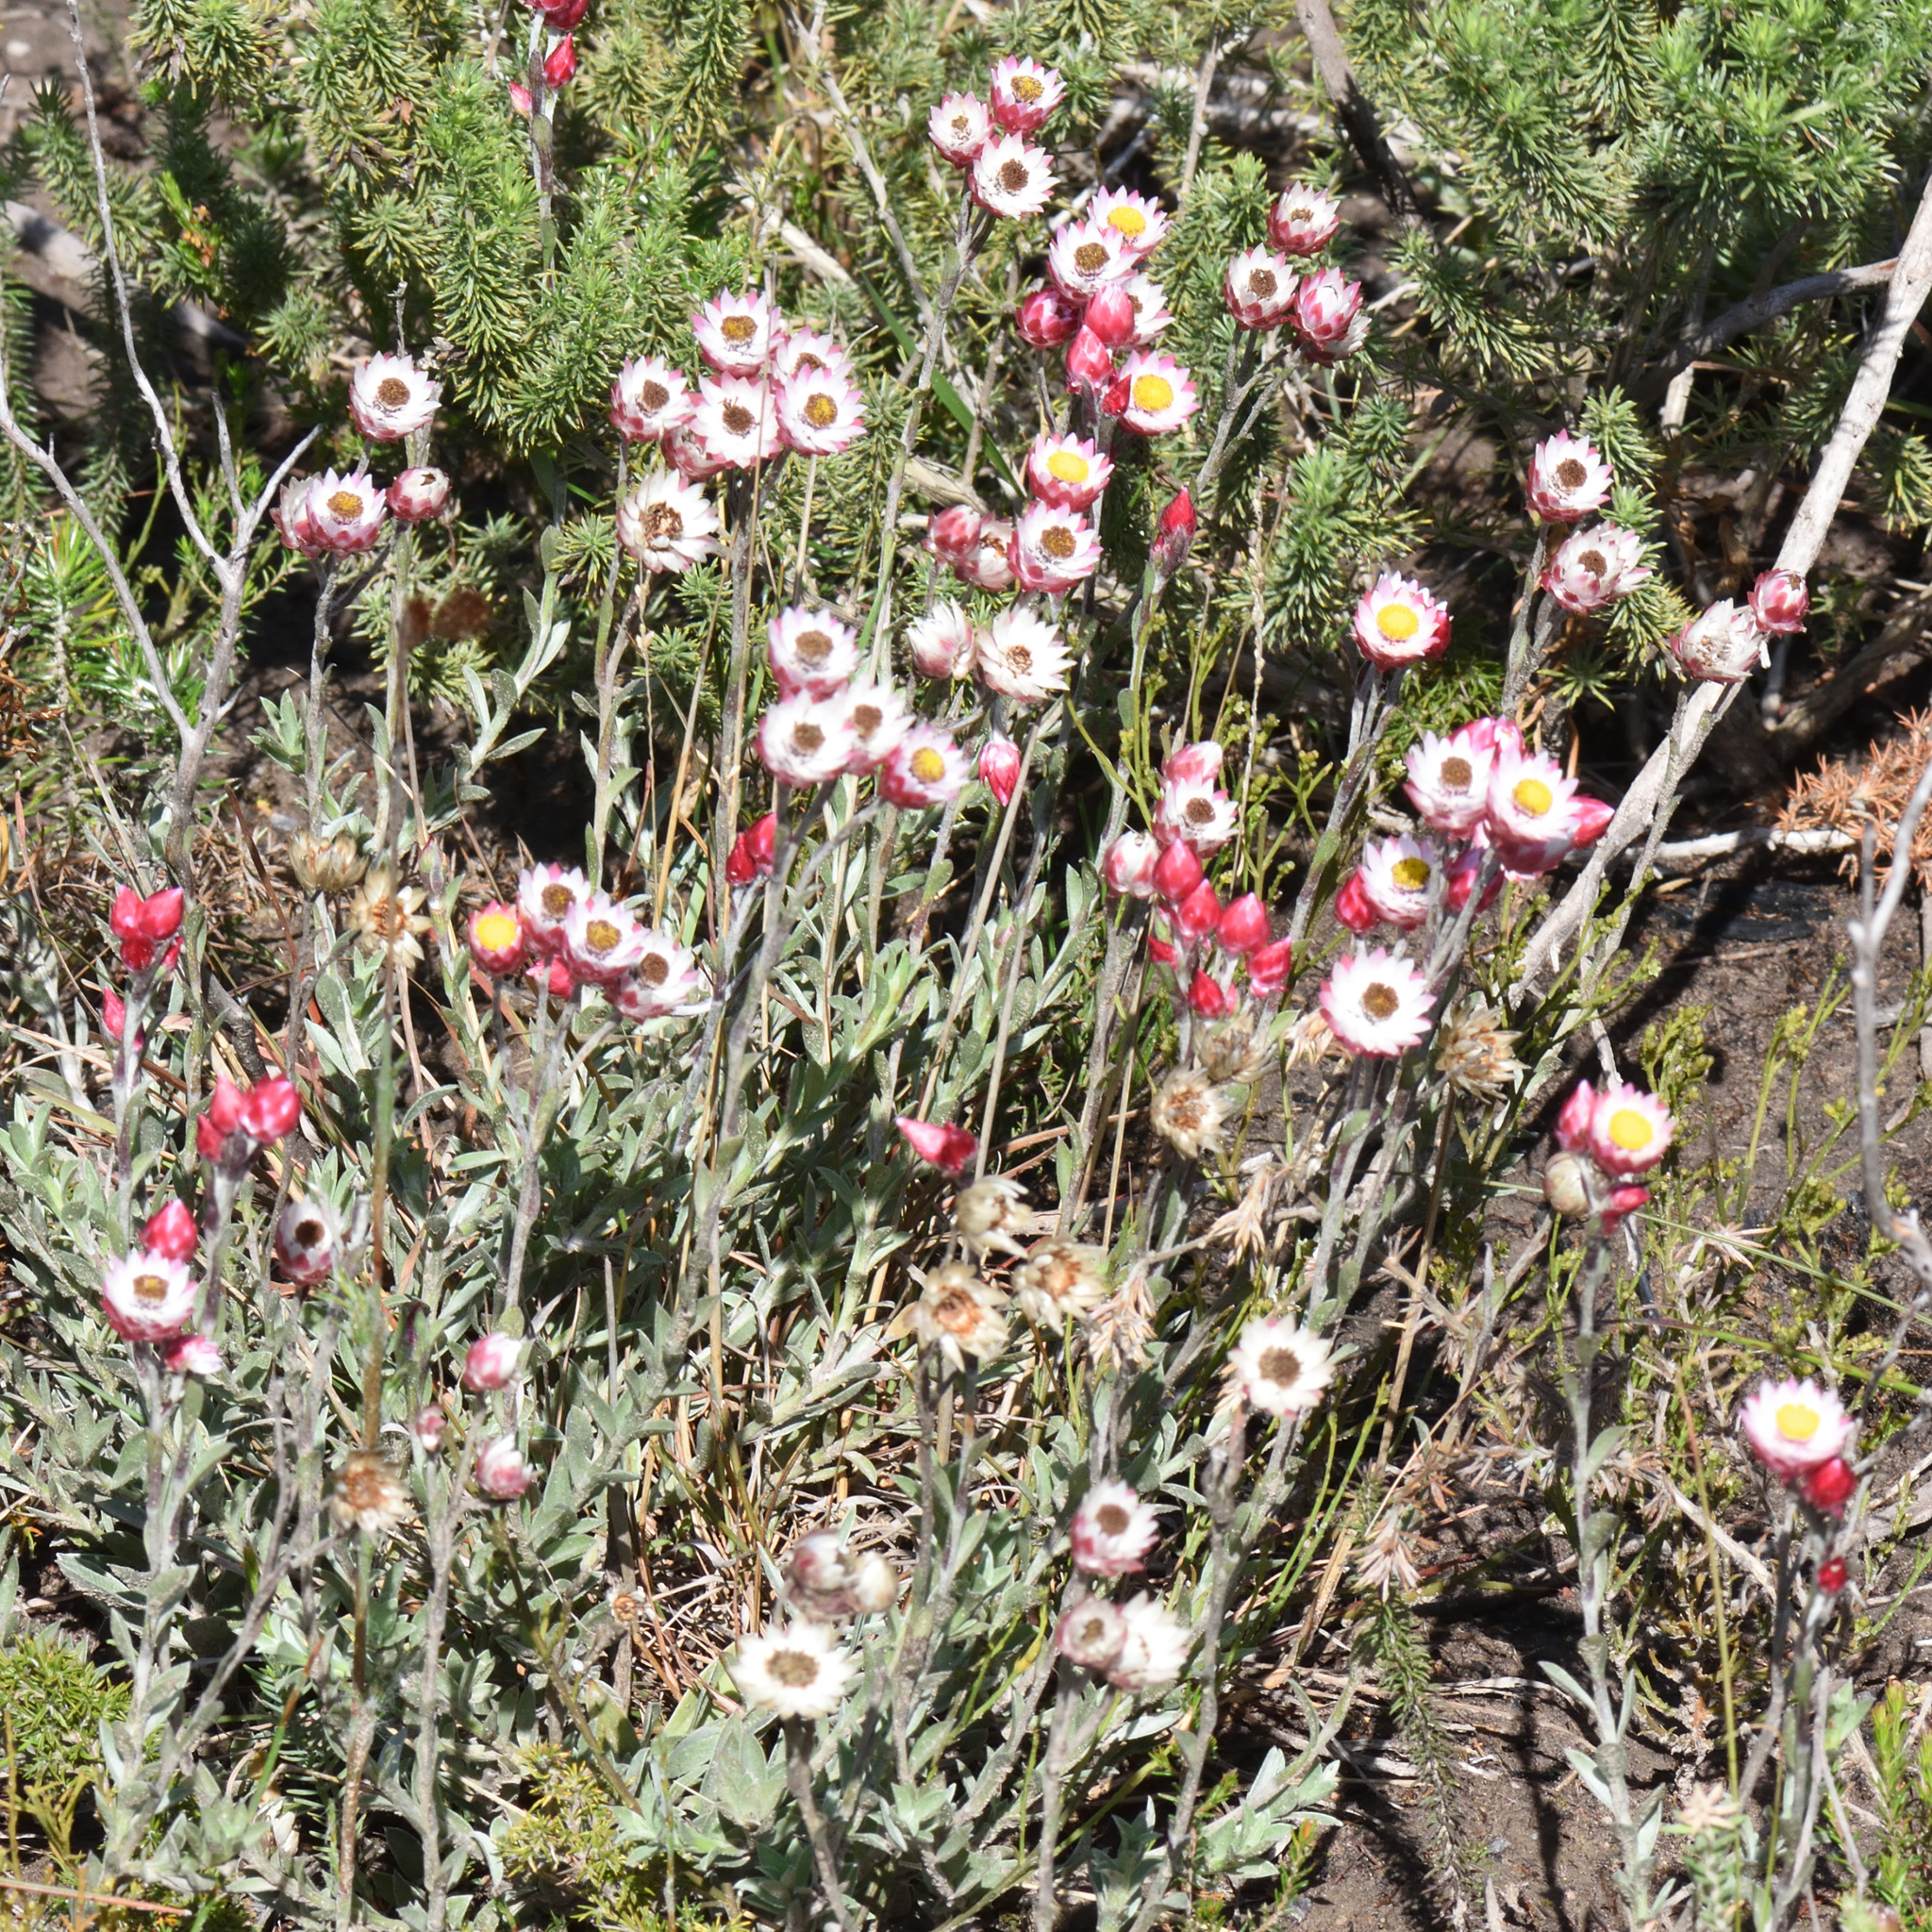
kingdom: Plantae
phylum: Tracheophyta
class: Magnoliopsida
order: Asterales
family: Asteraceae
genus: Achyranthemum
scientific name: Achyranthemum affine
